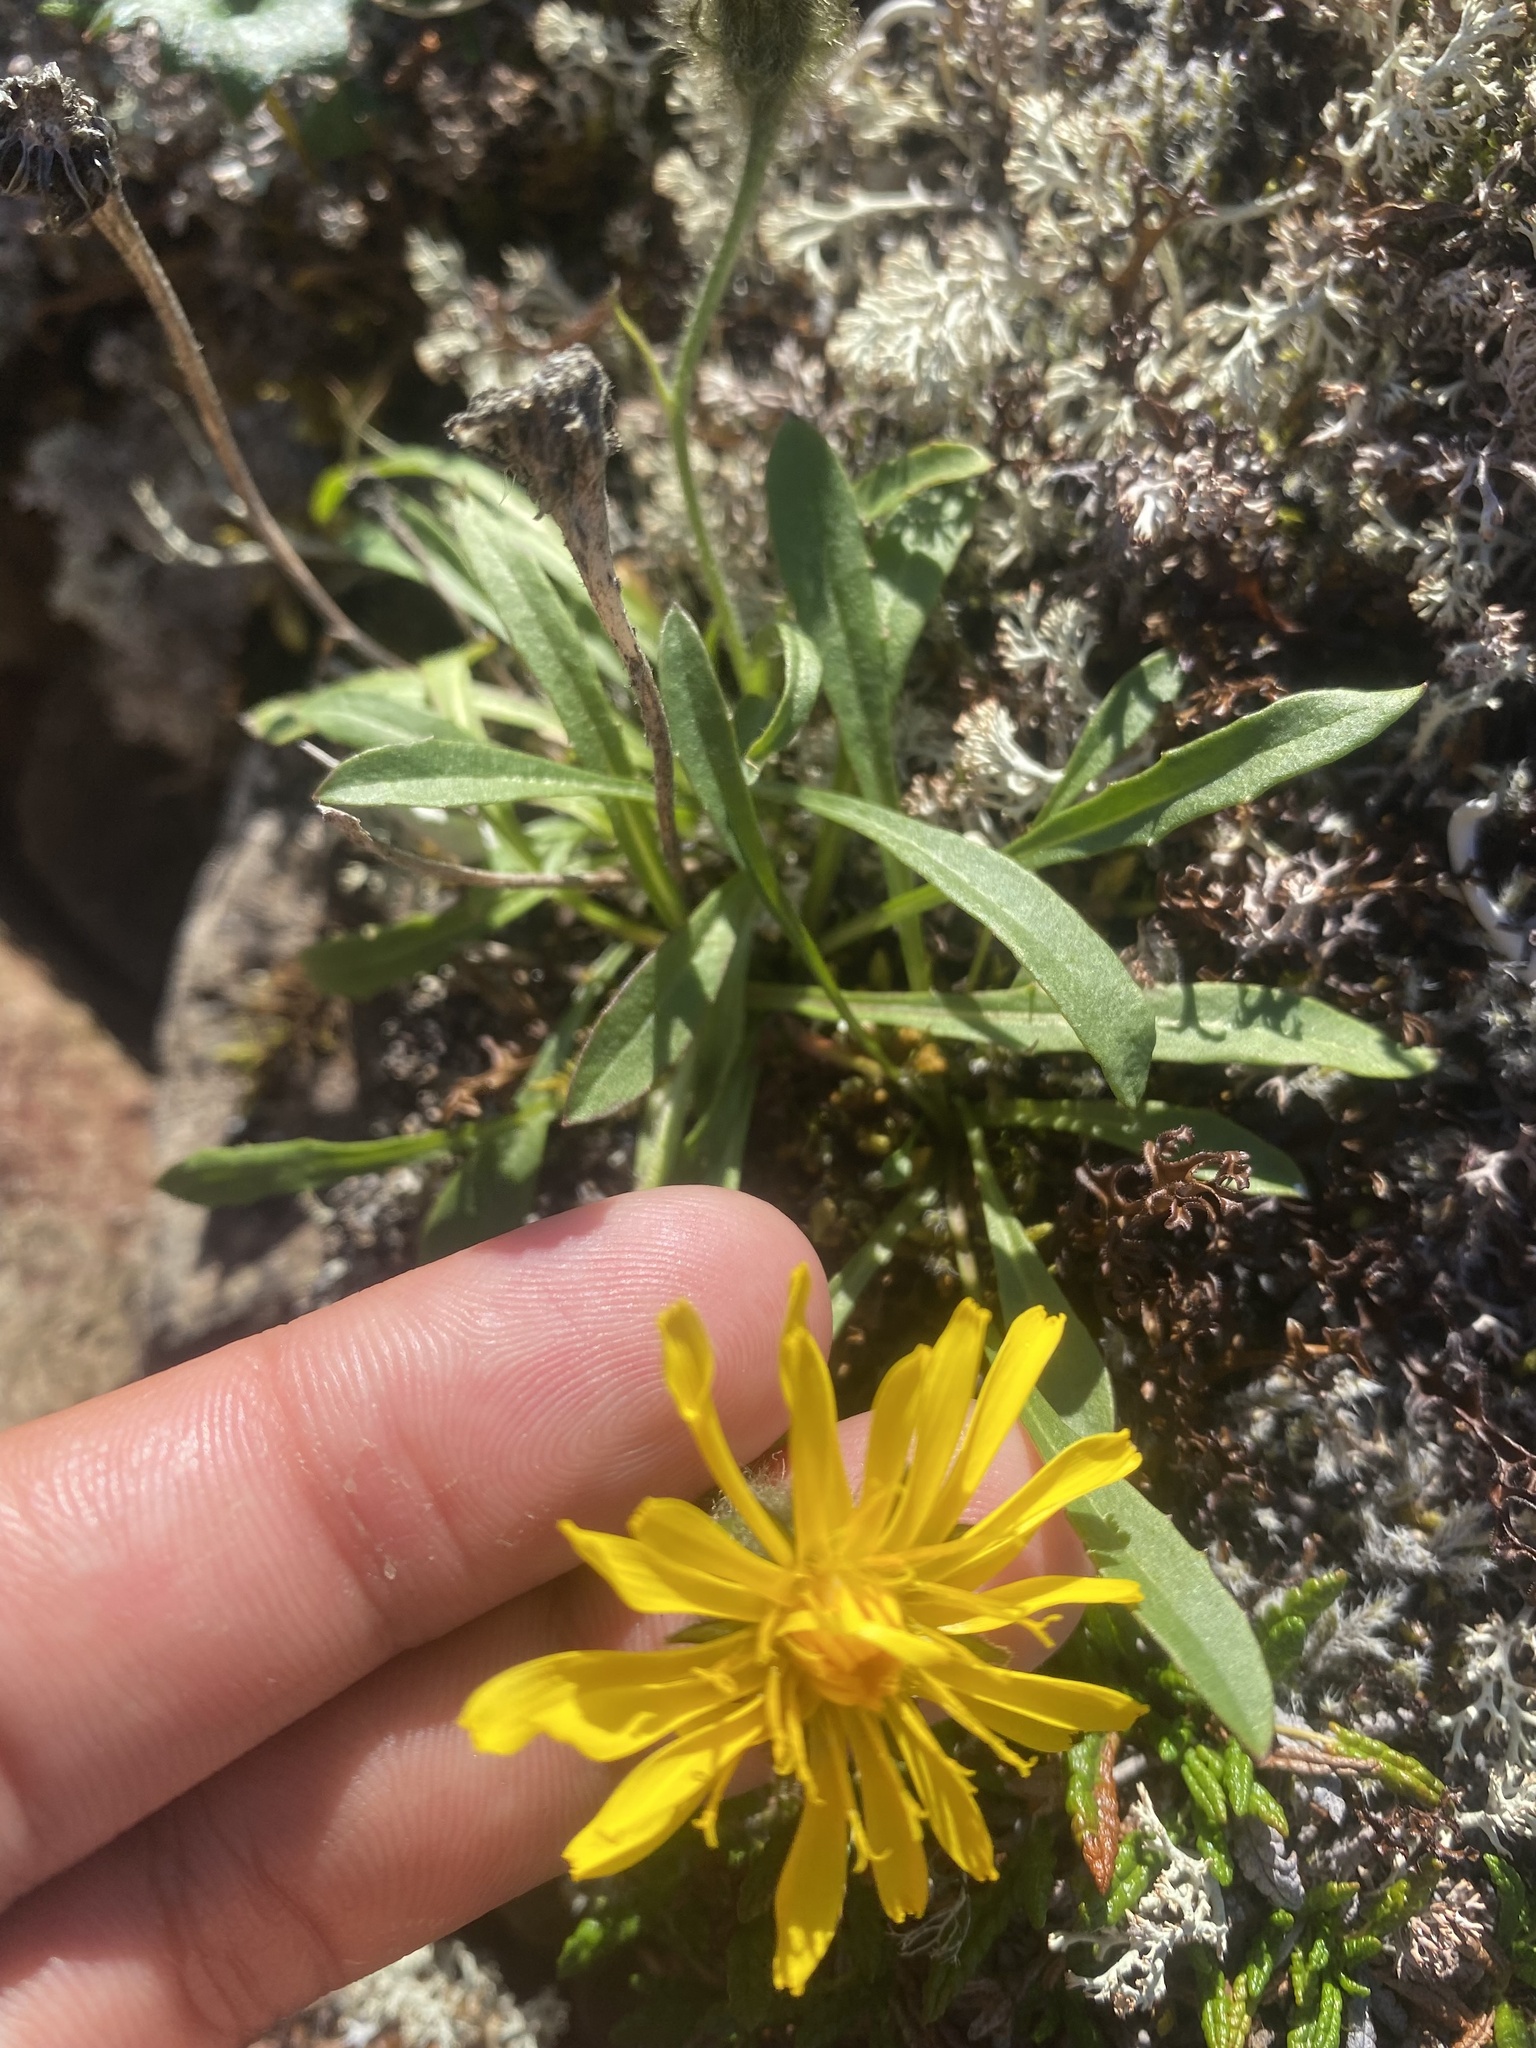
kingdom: Plantae
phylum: Tracheophyta
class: Magnoliopsida
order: Asterales
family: Asteraceae
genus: Crepis
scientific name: Crepis chrysantha
